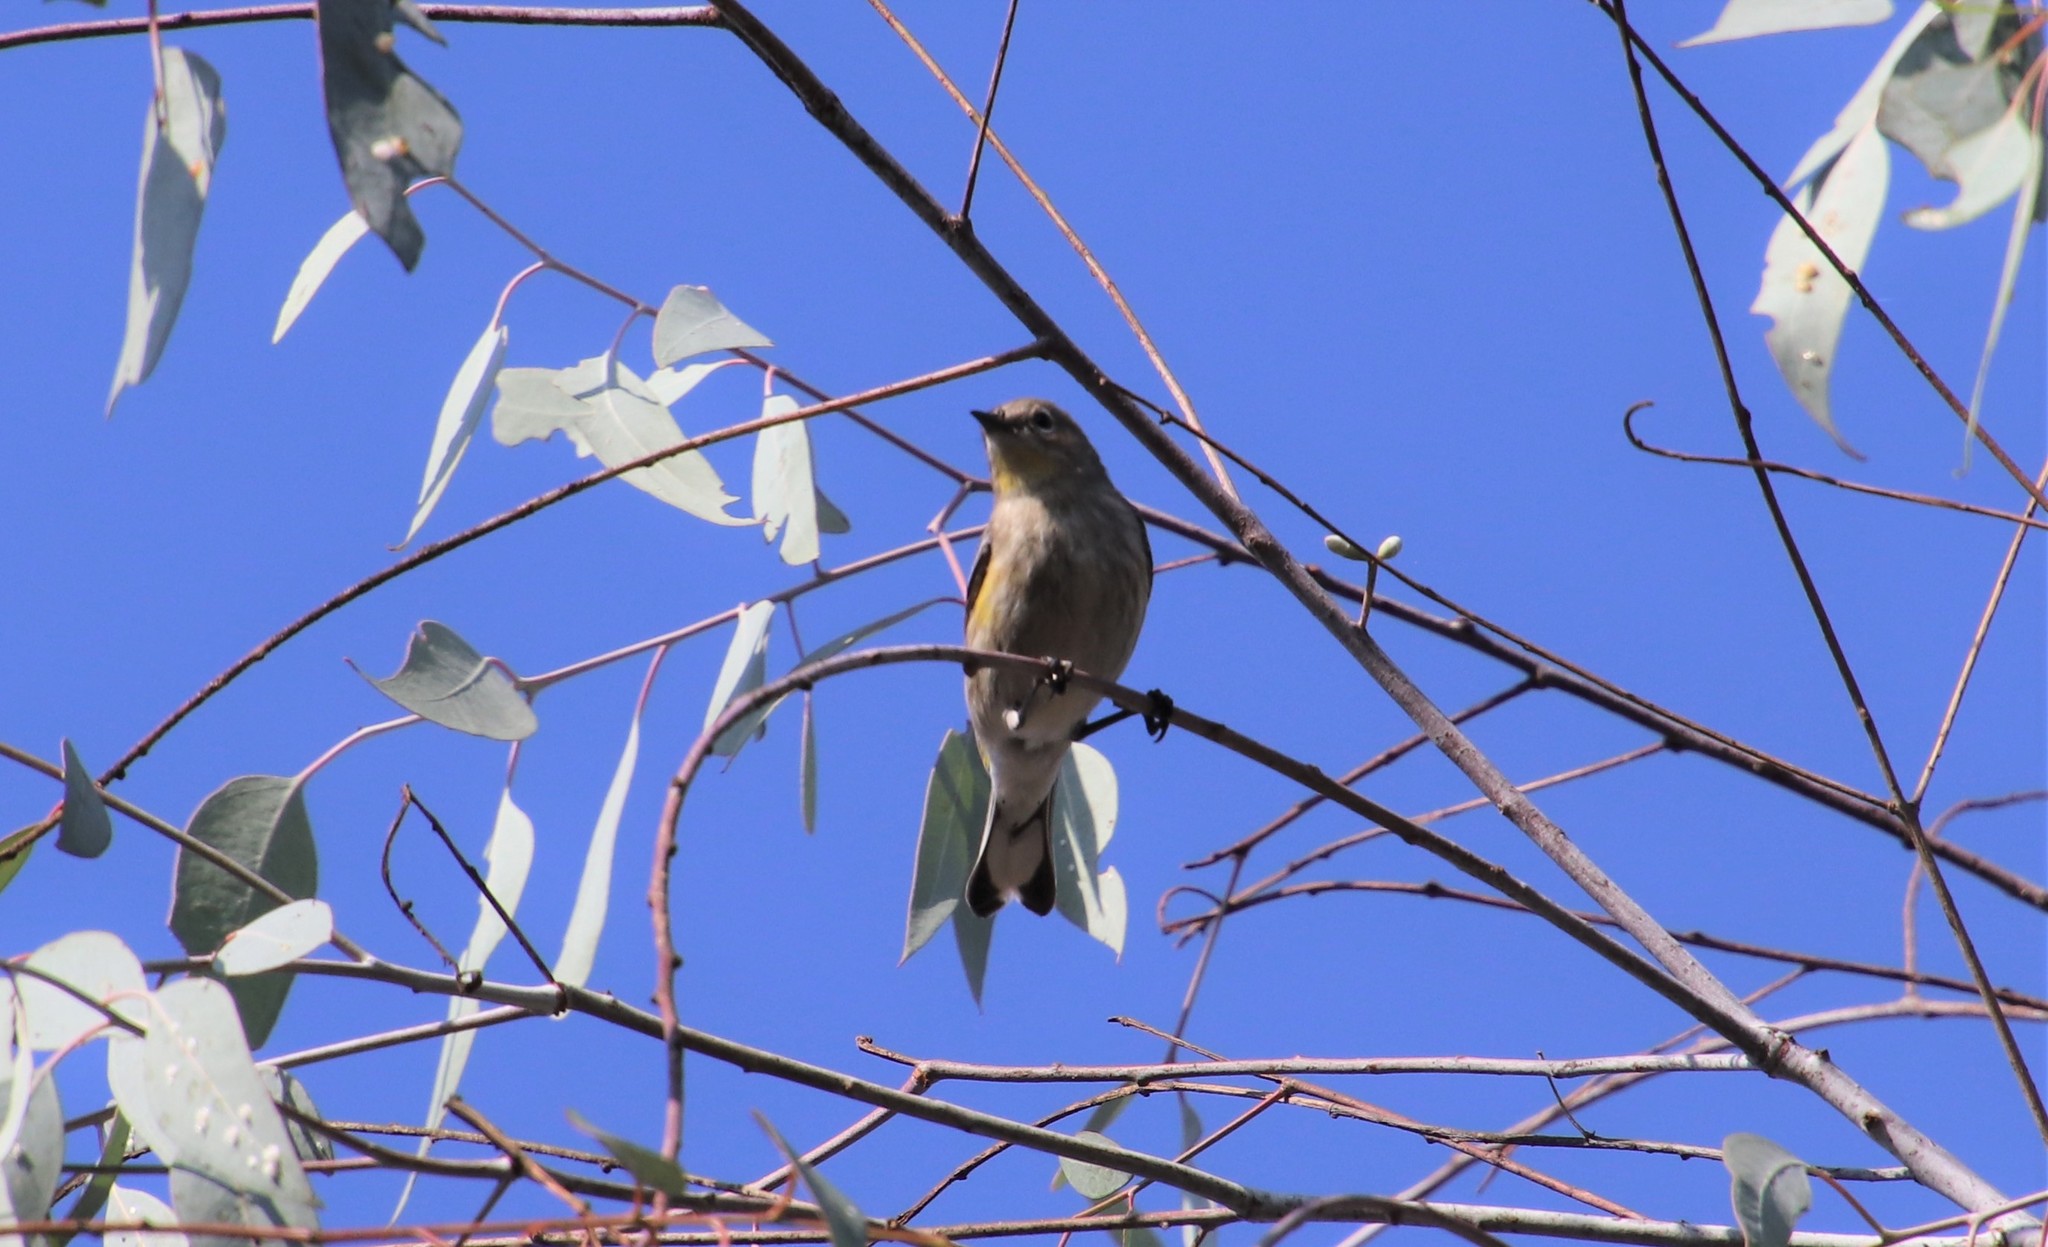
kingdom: Animalia
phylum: Chordata
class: Aves
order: Passeriformes
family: Parulidae
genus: Setophaga
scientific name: Setophaga auduboni
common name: Audubon's warbler
